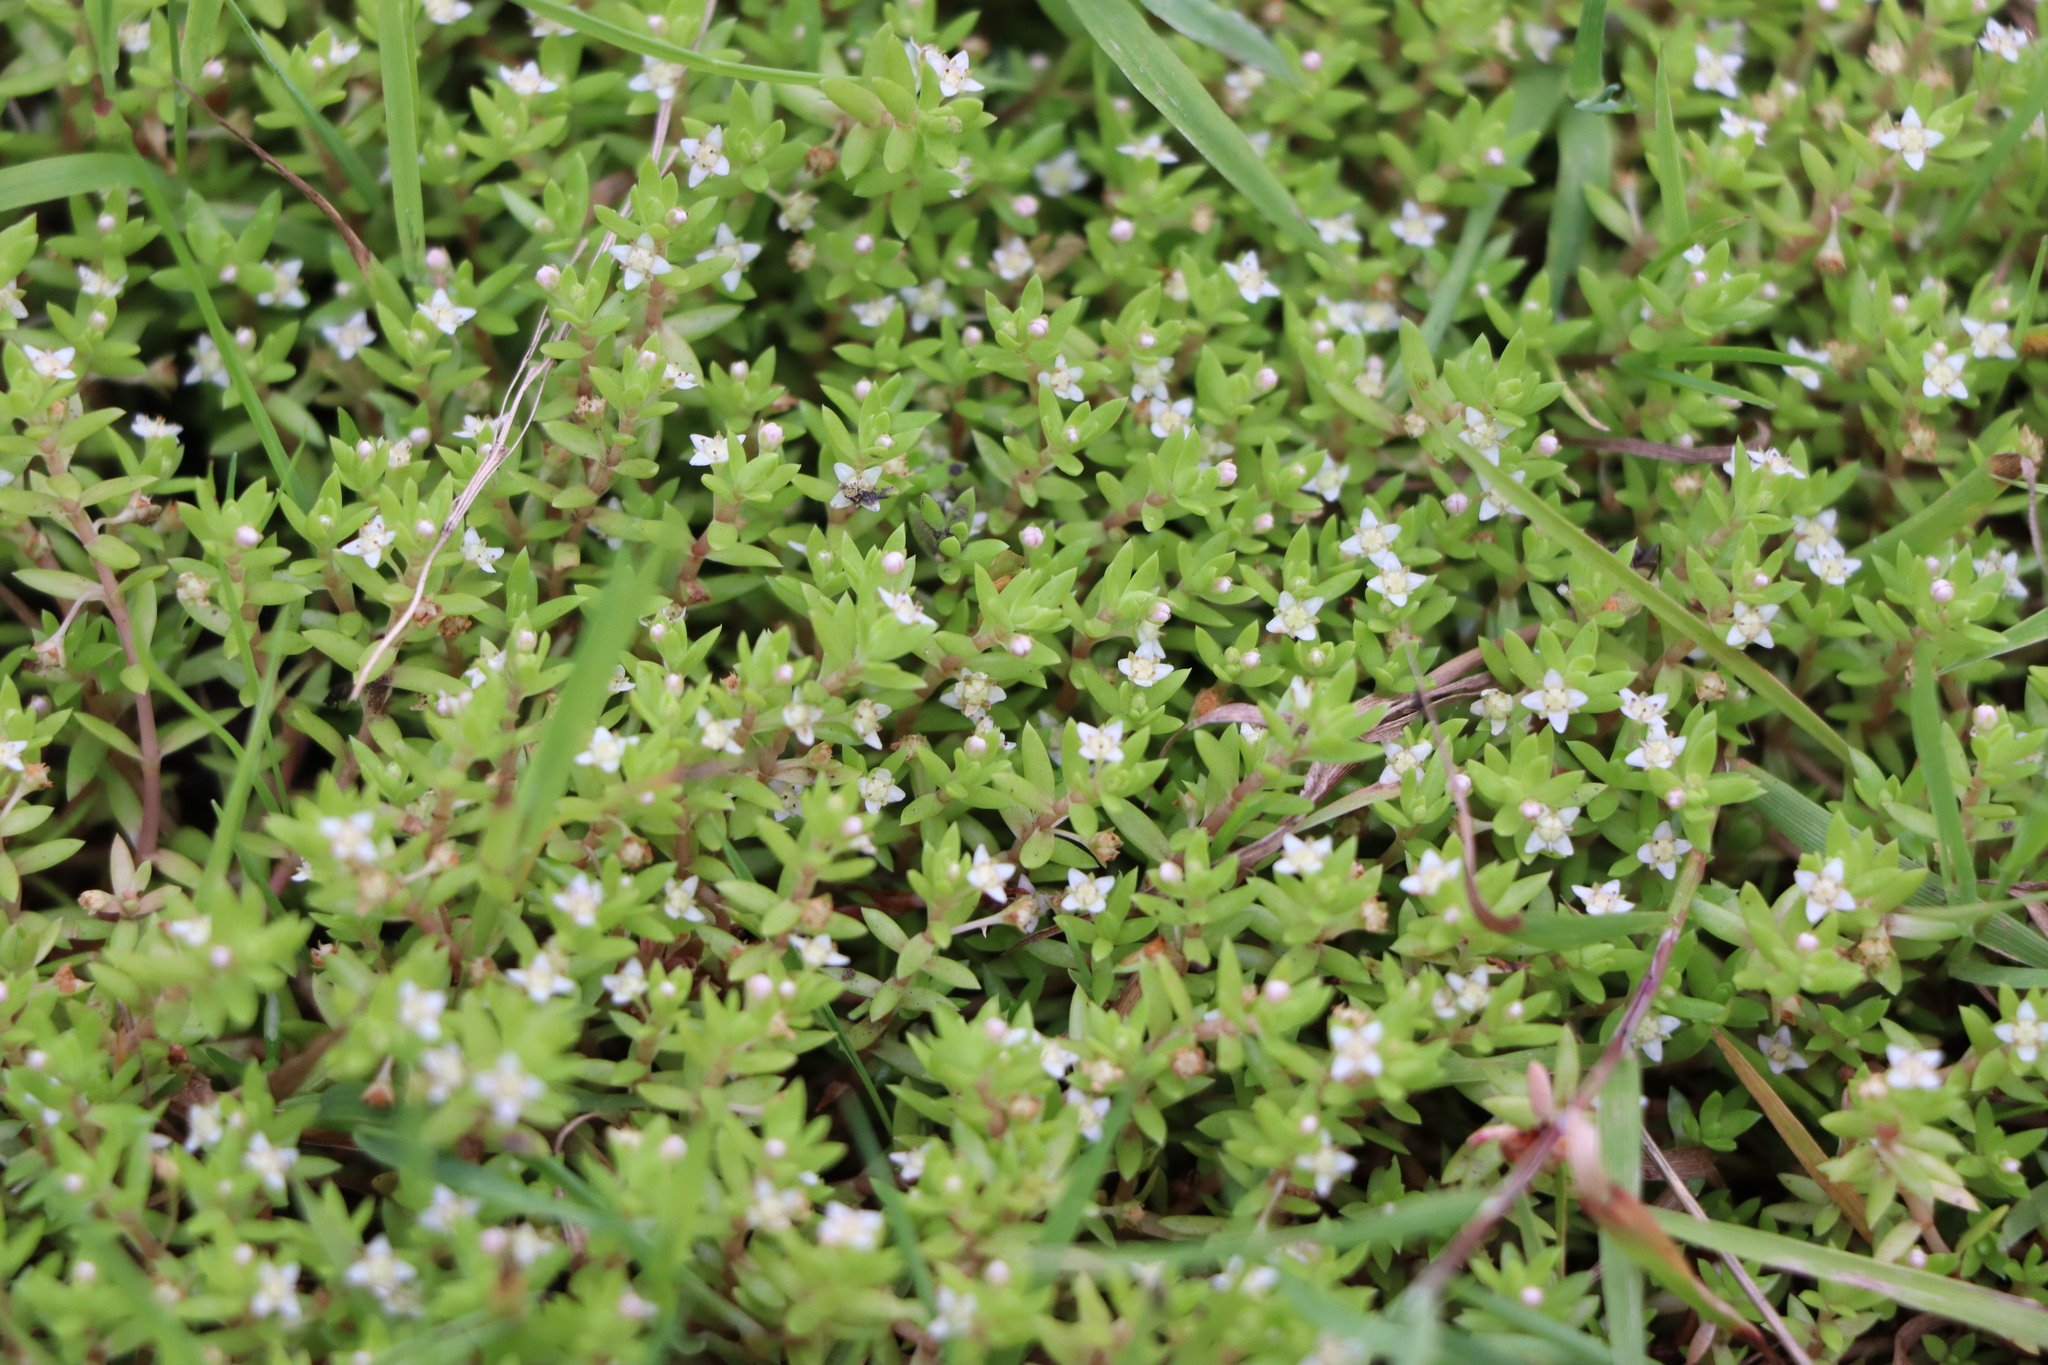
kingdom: Plantae
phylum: Tracheophyta
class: Magnoliopsida
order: Saxifragales
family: Crassulaceae
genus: Crassula
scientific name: Crassula helmsii
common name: New zealand pigmyweed
